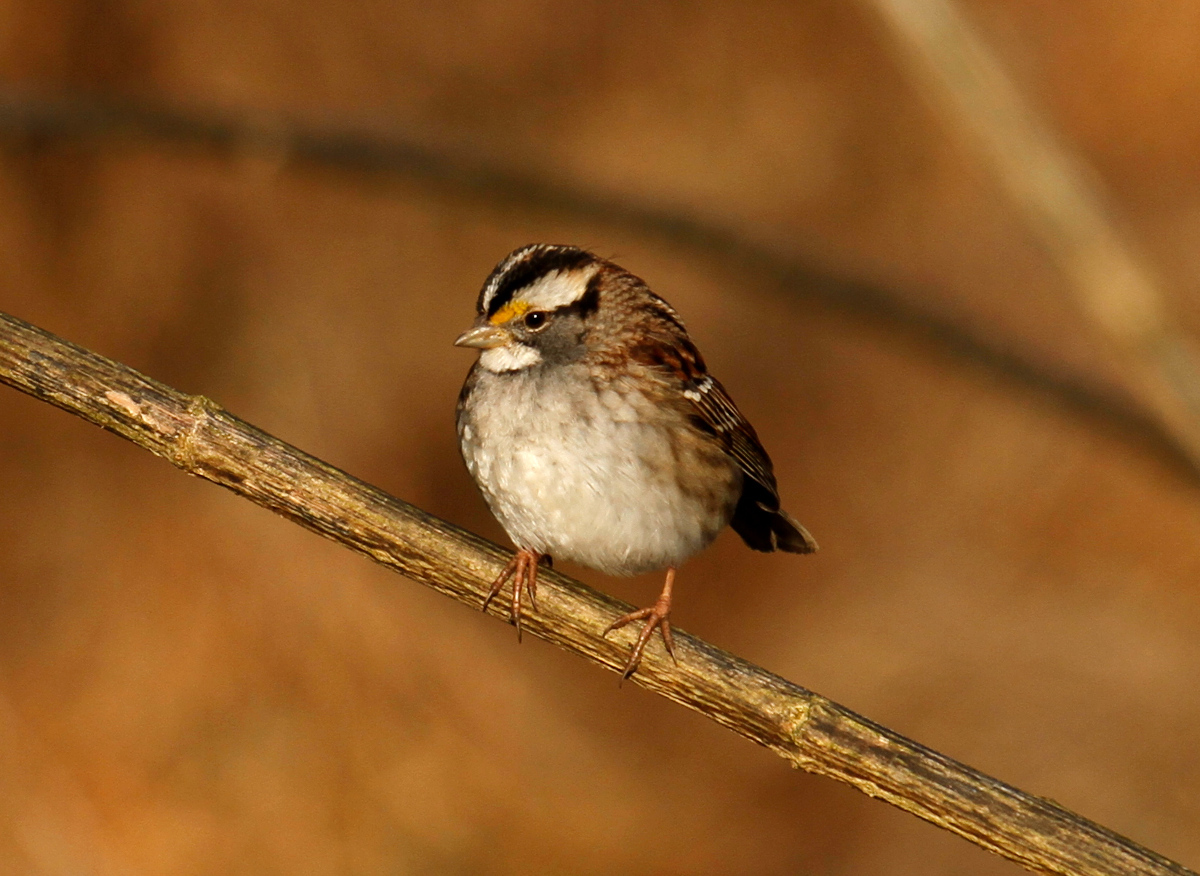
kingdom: Animalia
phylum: Chordata
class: Aves
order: Passeriformes
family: Passerellidae
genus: Zonotrichia
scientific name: Zonotrichia albicollis
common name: White-throated sparrow
